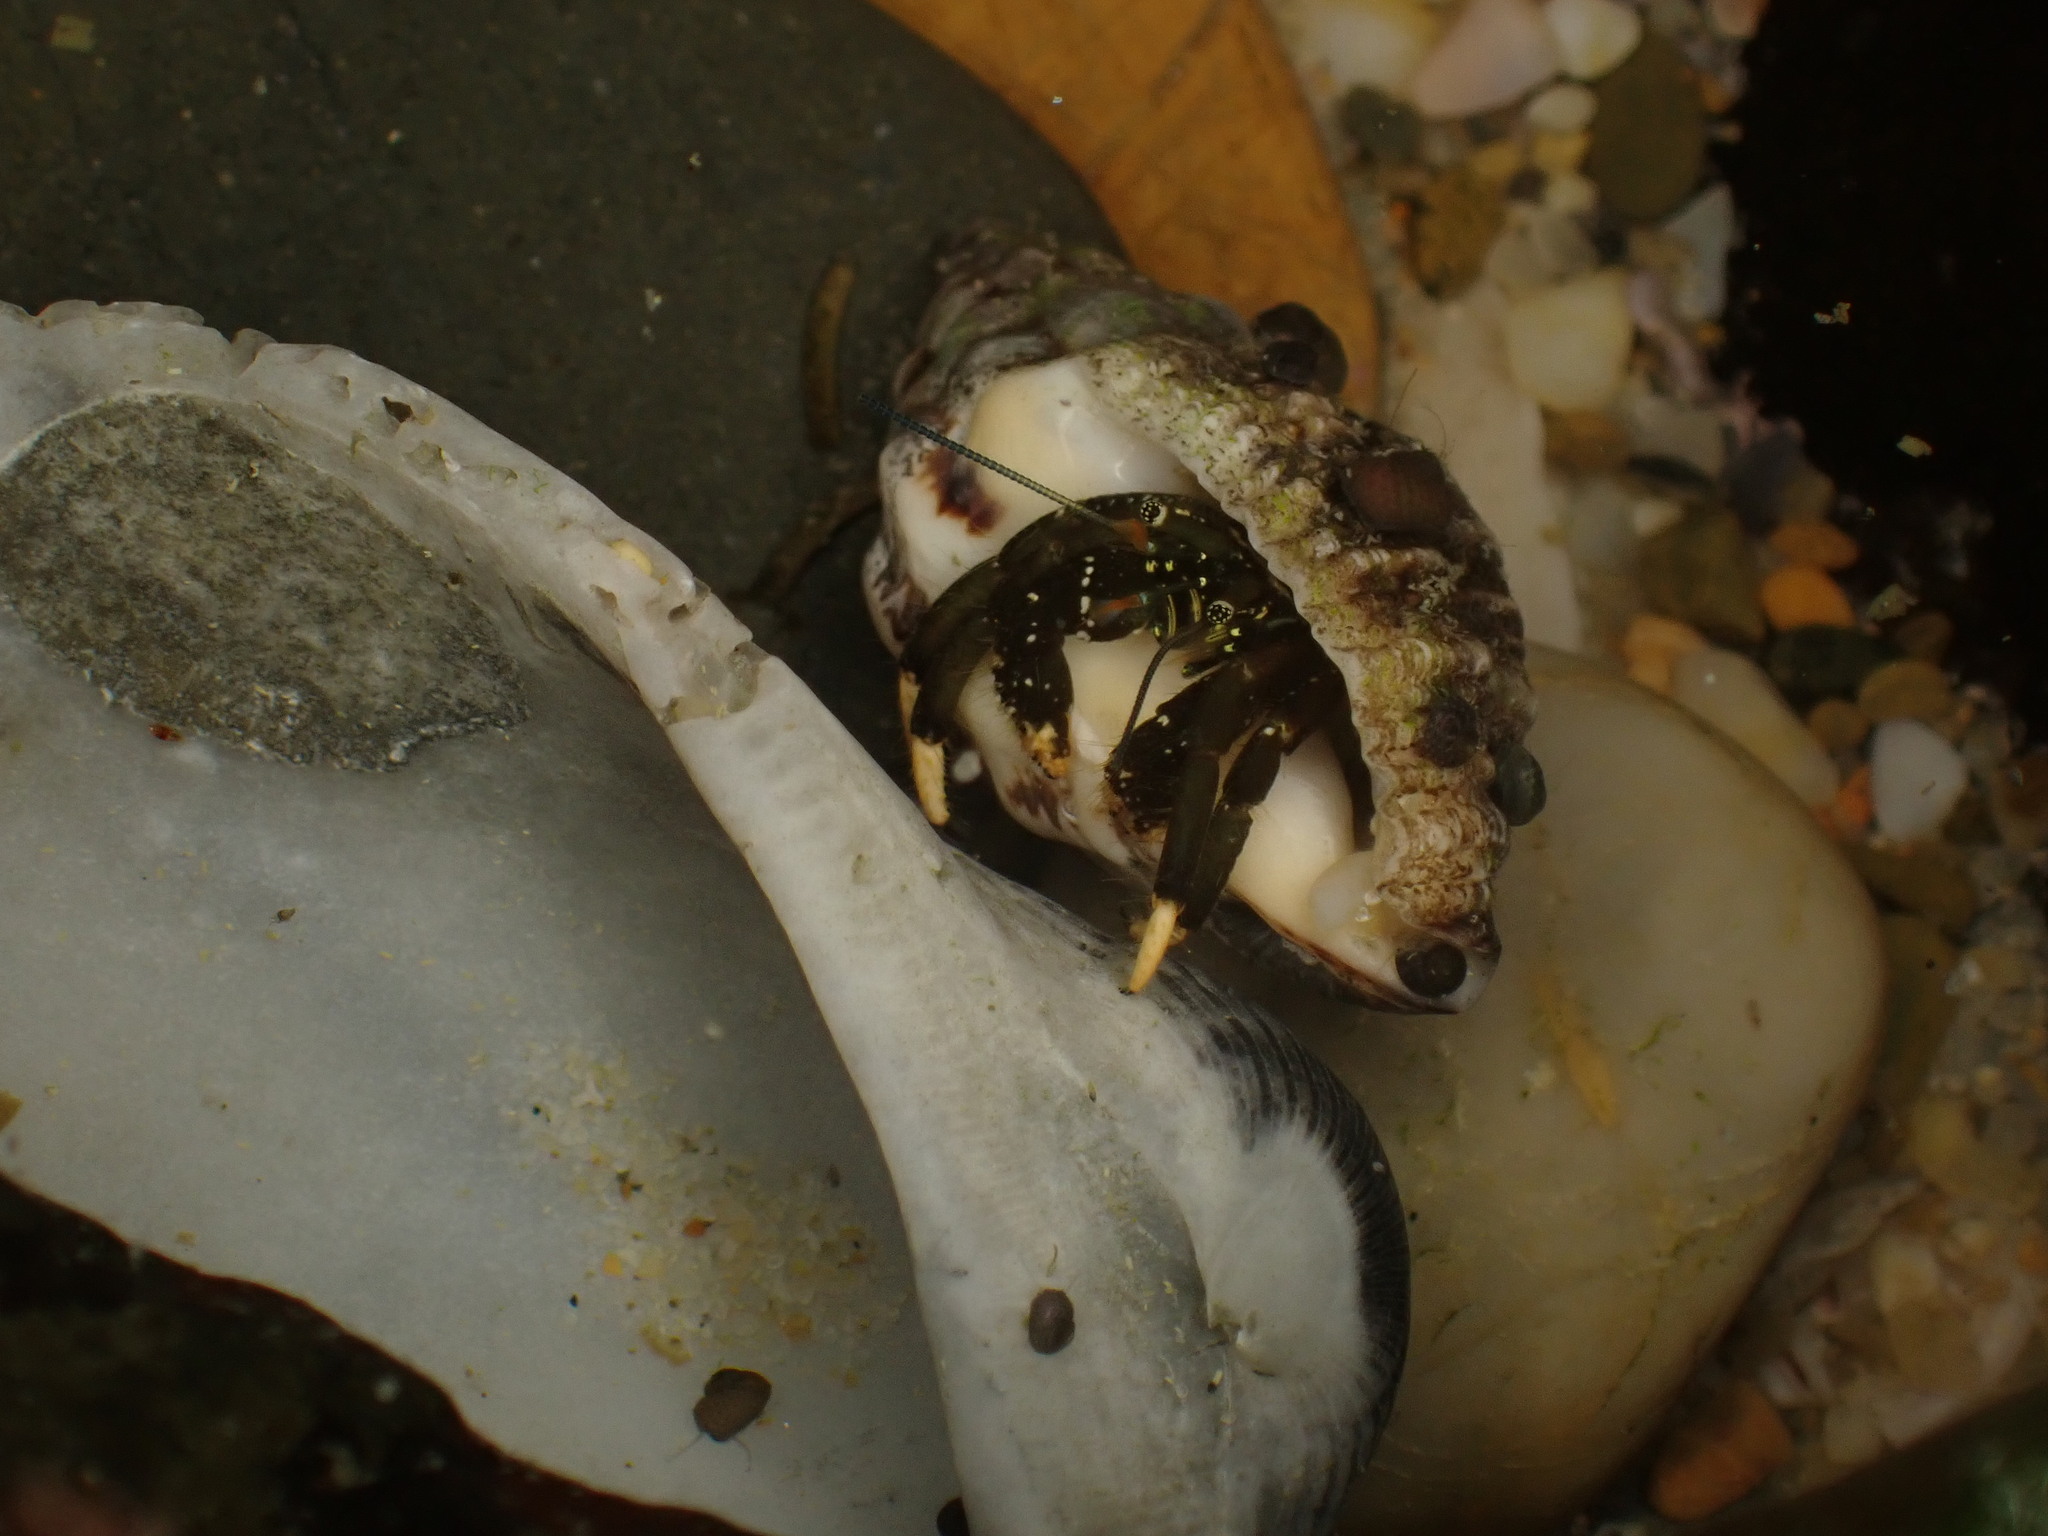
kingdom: Animalia
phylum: Arthropoda
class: Malacostraca
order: Decapoda
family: Diogenidae
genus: Clibanarius
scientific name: Clibanarius virescens
